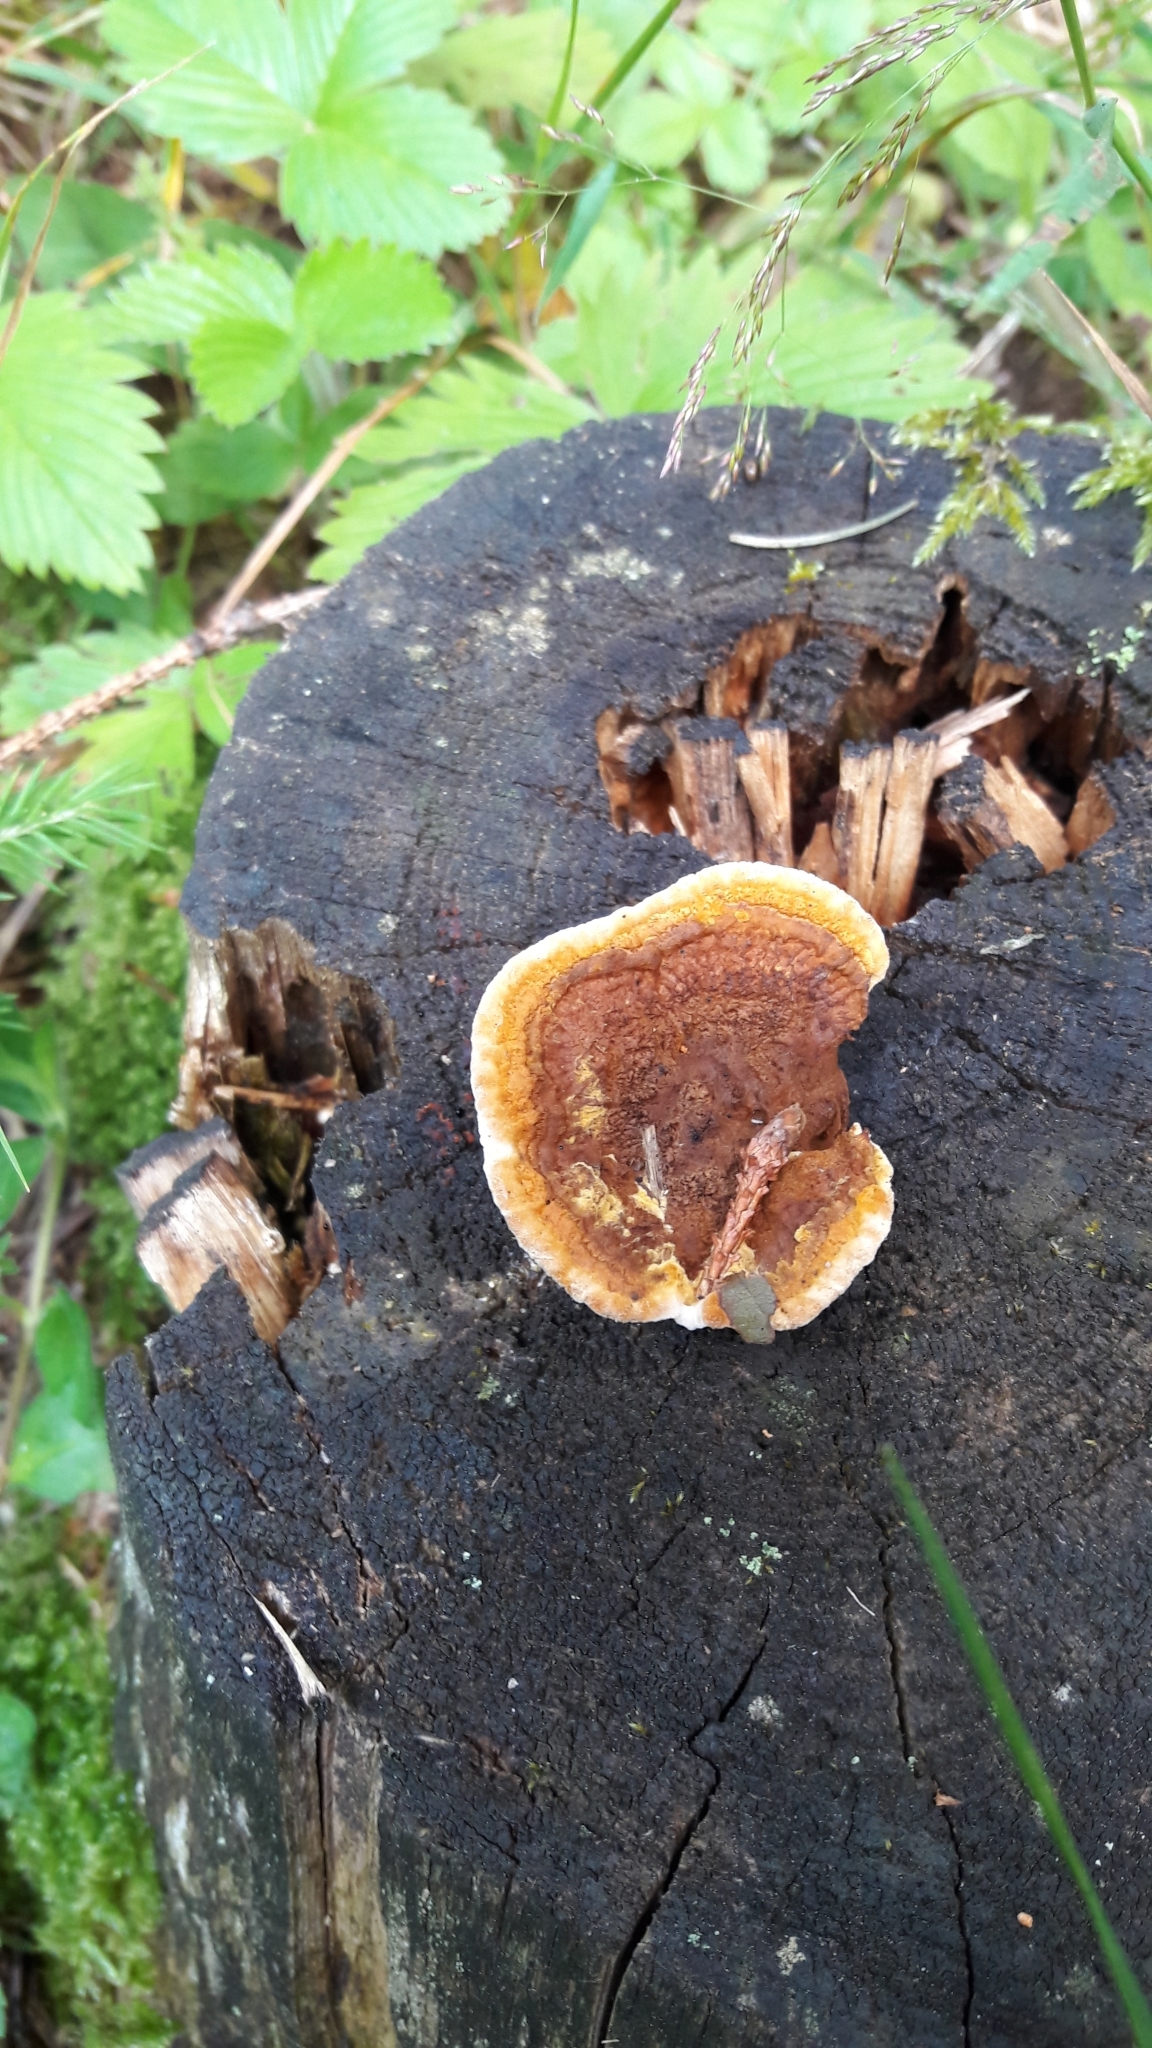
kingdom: Fungi
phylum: Basidiomycota
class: Agaricomycetes
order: Gloeophyllales
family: Gloeophyllaceae
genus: Gloeophyllum
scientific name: Gloeophyllum sepiarium
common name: Conifer mazegill
